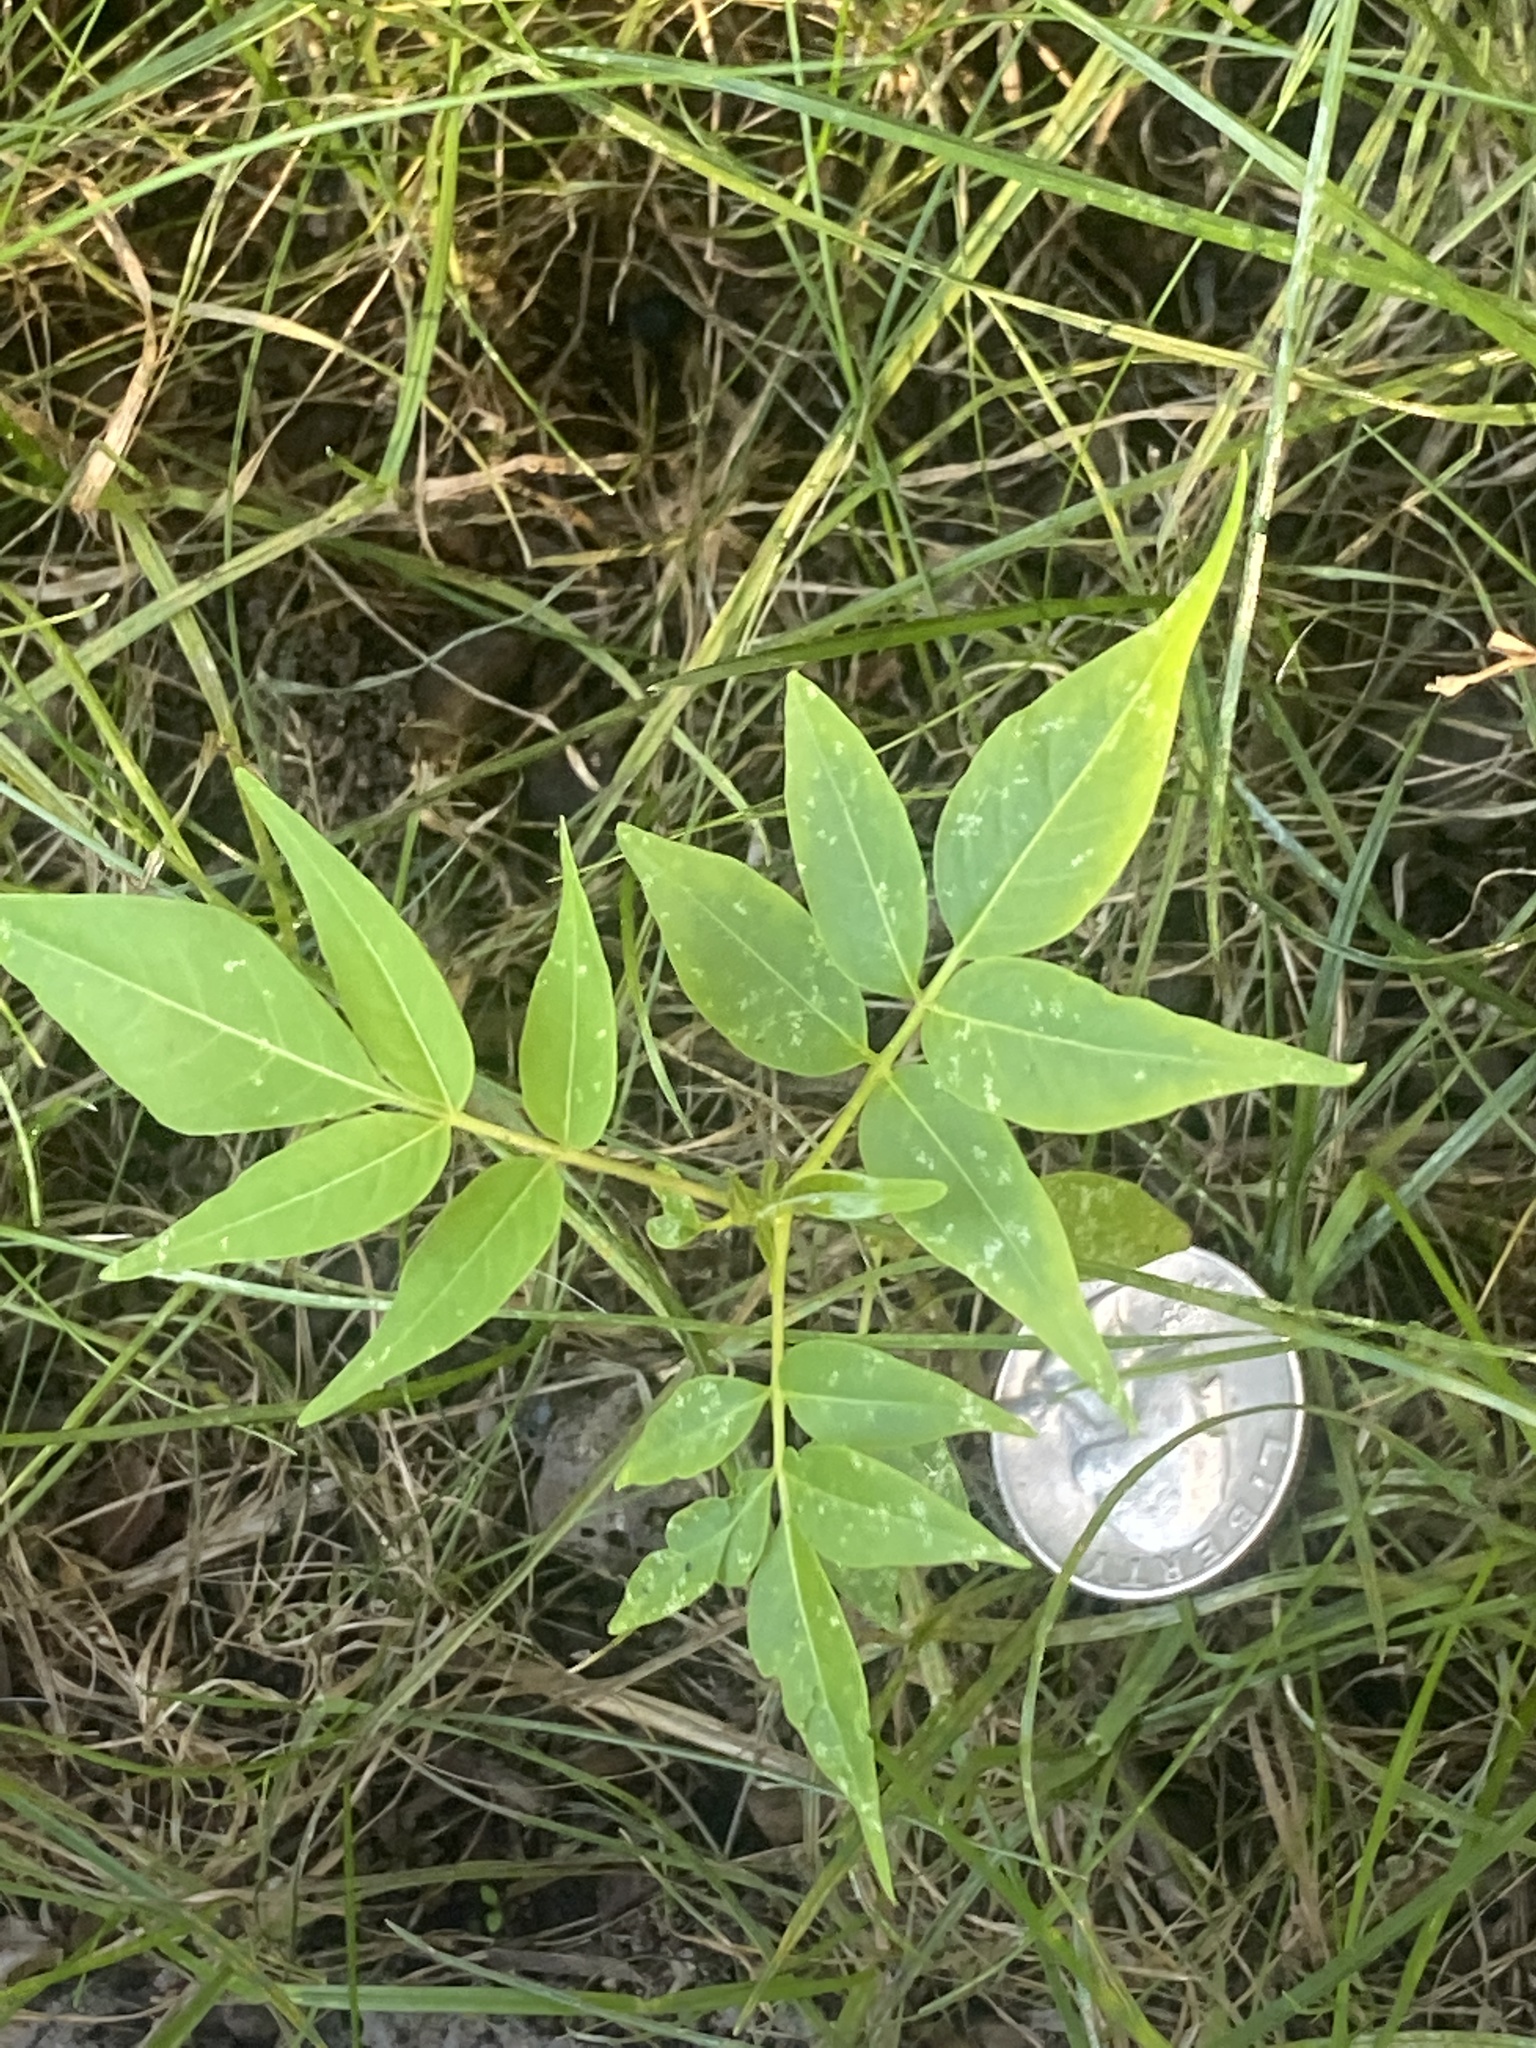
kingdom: Plantae
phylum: Tracheophyta
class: Magnoliopsida
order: Sapindales
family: Simaroubaceae
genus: Ailanthus
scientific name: Ailanthus altissima
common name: Tree-of-heaven
